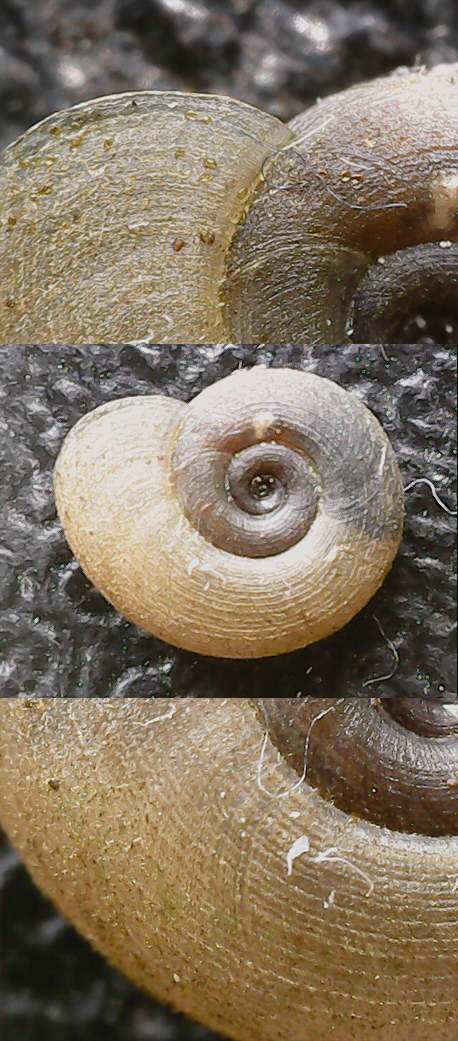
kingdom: Animalia
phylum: Mollusca
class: Gastropoda
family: Planorbidae
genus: Gyraulus
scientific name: Gyraulus albus
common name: White ramshorn
